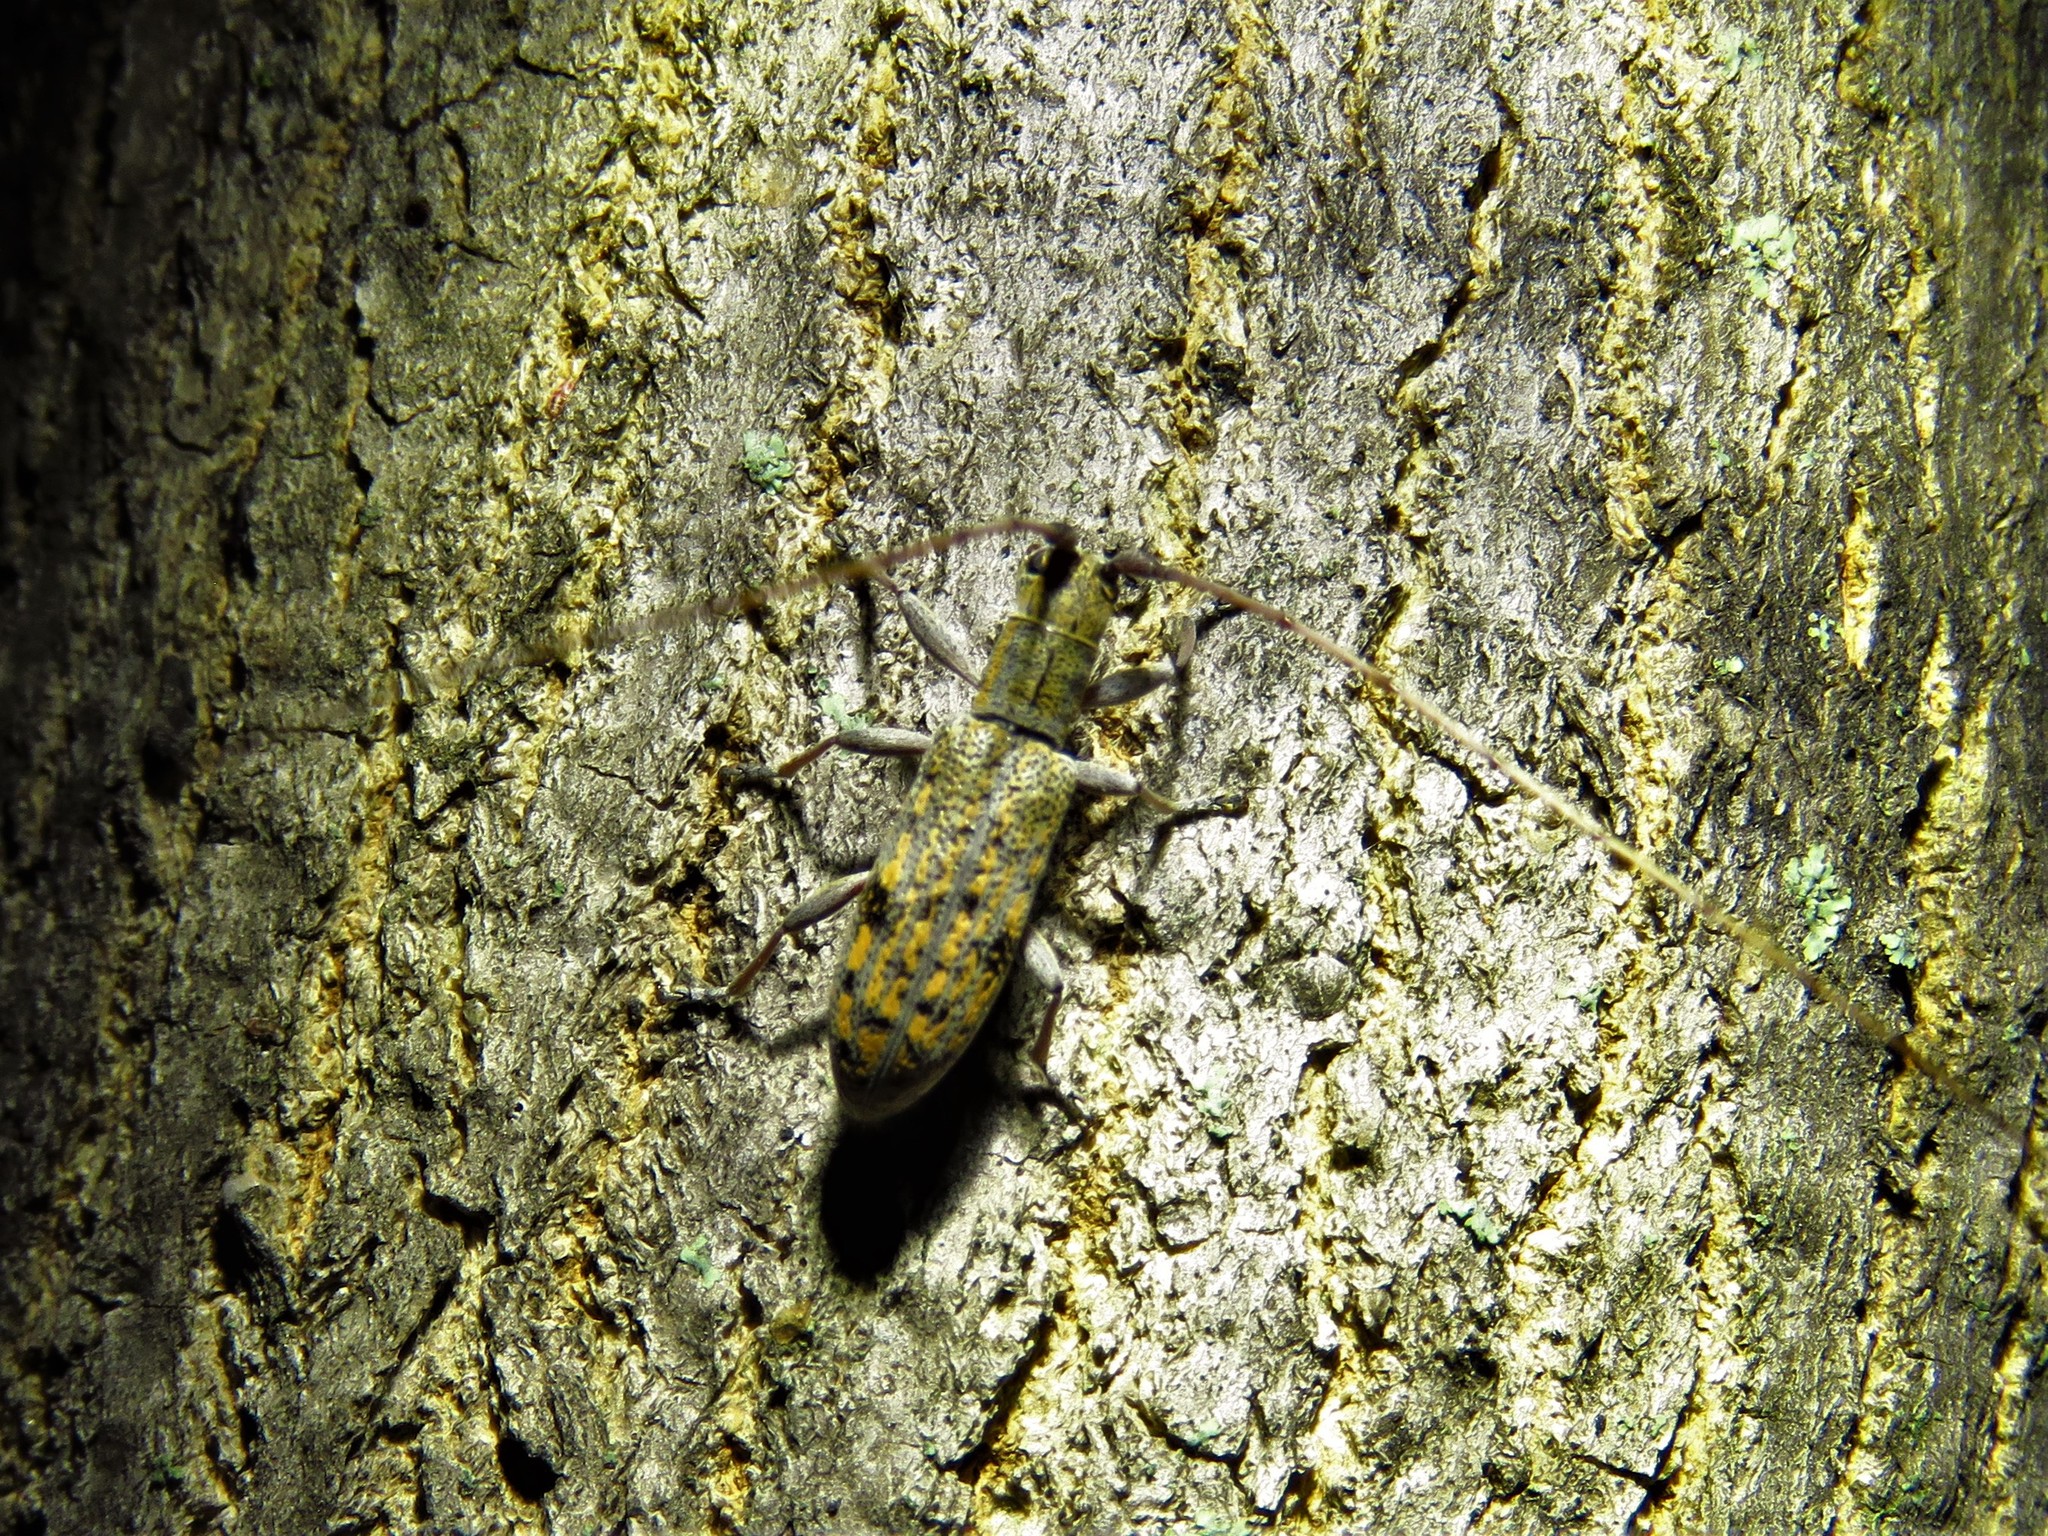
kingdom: Animalia
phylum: Arthropoda
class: Insecta
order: Coleoptera
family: Cerambycidae
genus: Dorcaschema
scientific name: Dorcaschema alternatum
